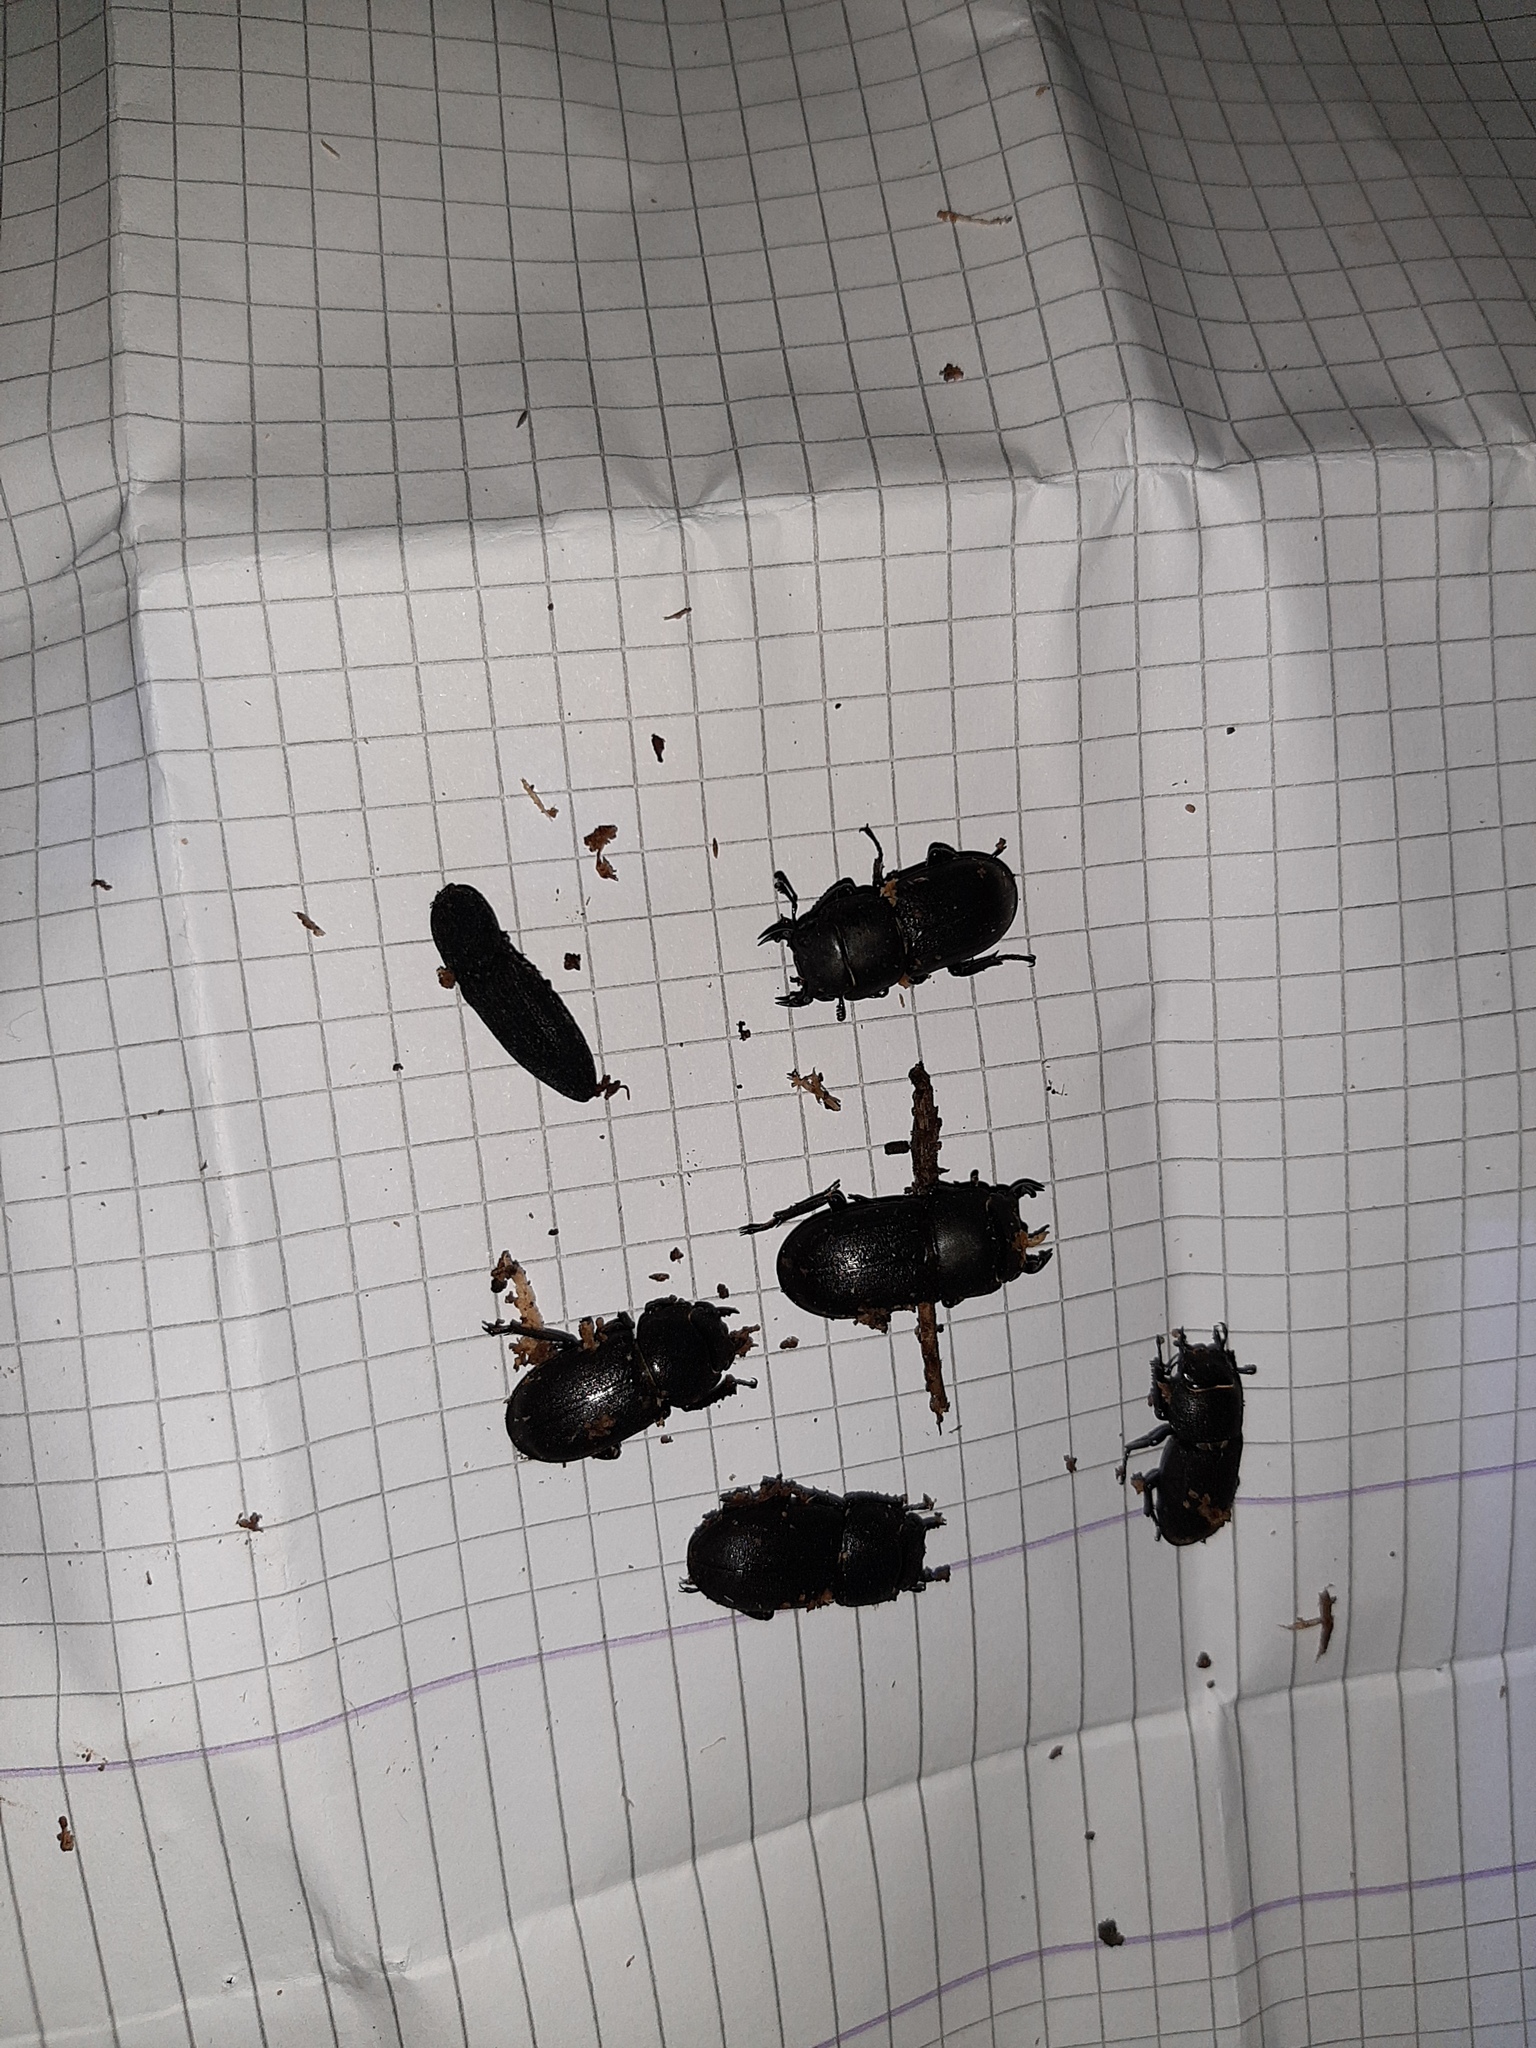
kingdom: Animalia
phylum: Arthropoda
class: Insecta
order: Coleoptera
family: Lucanidae
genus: Dorcus
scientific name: Dorcus parallelipipedus
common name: Lesser stag beetle
